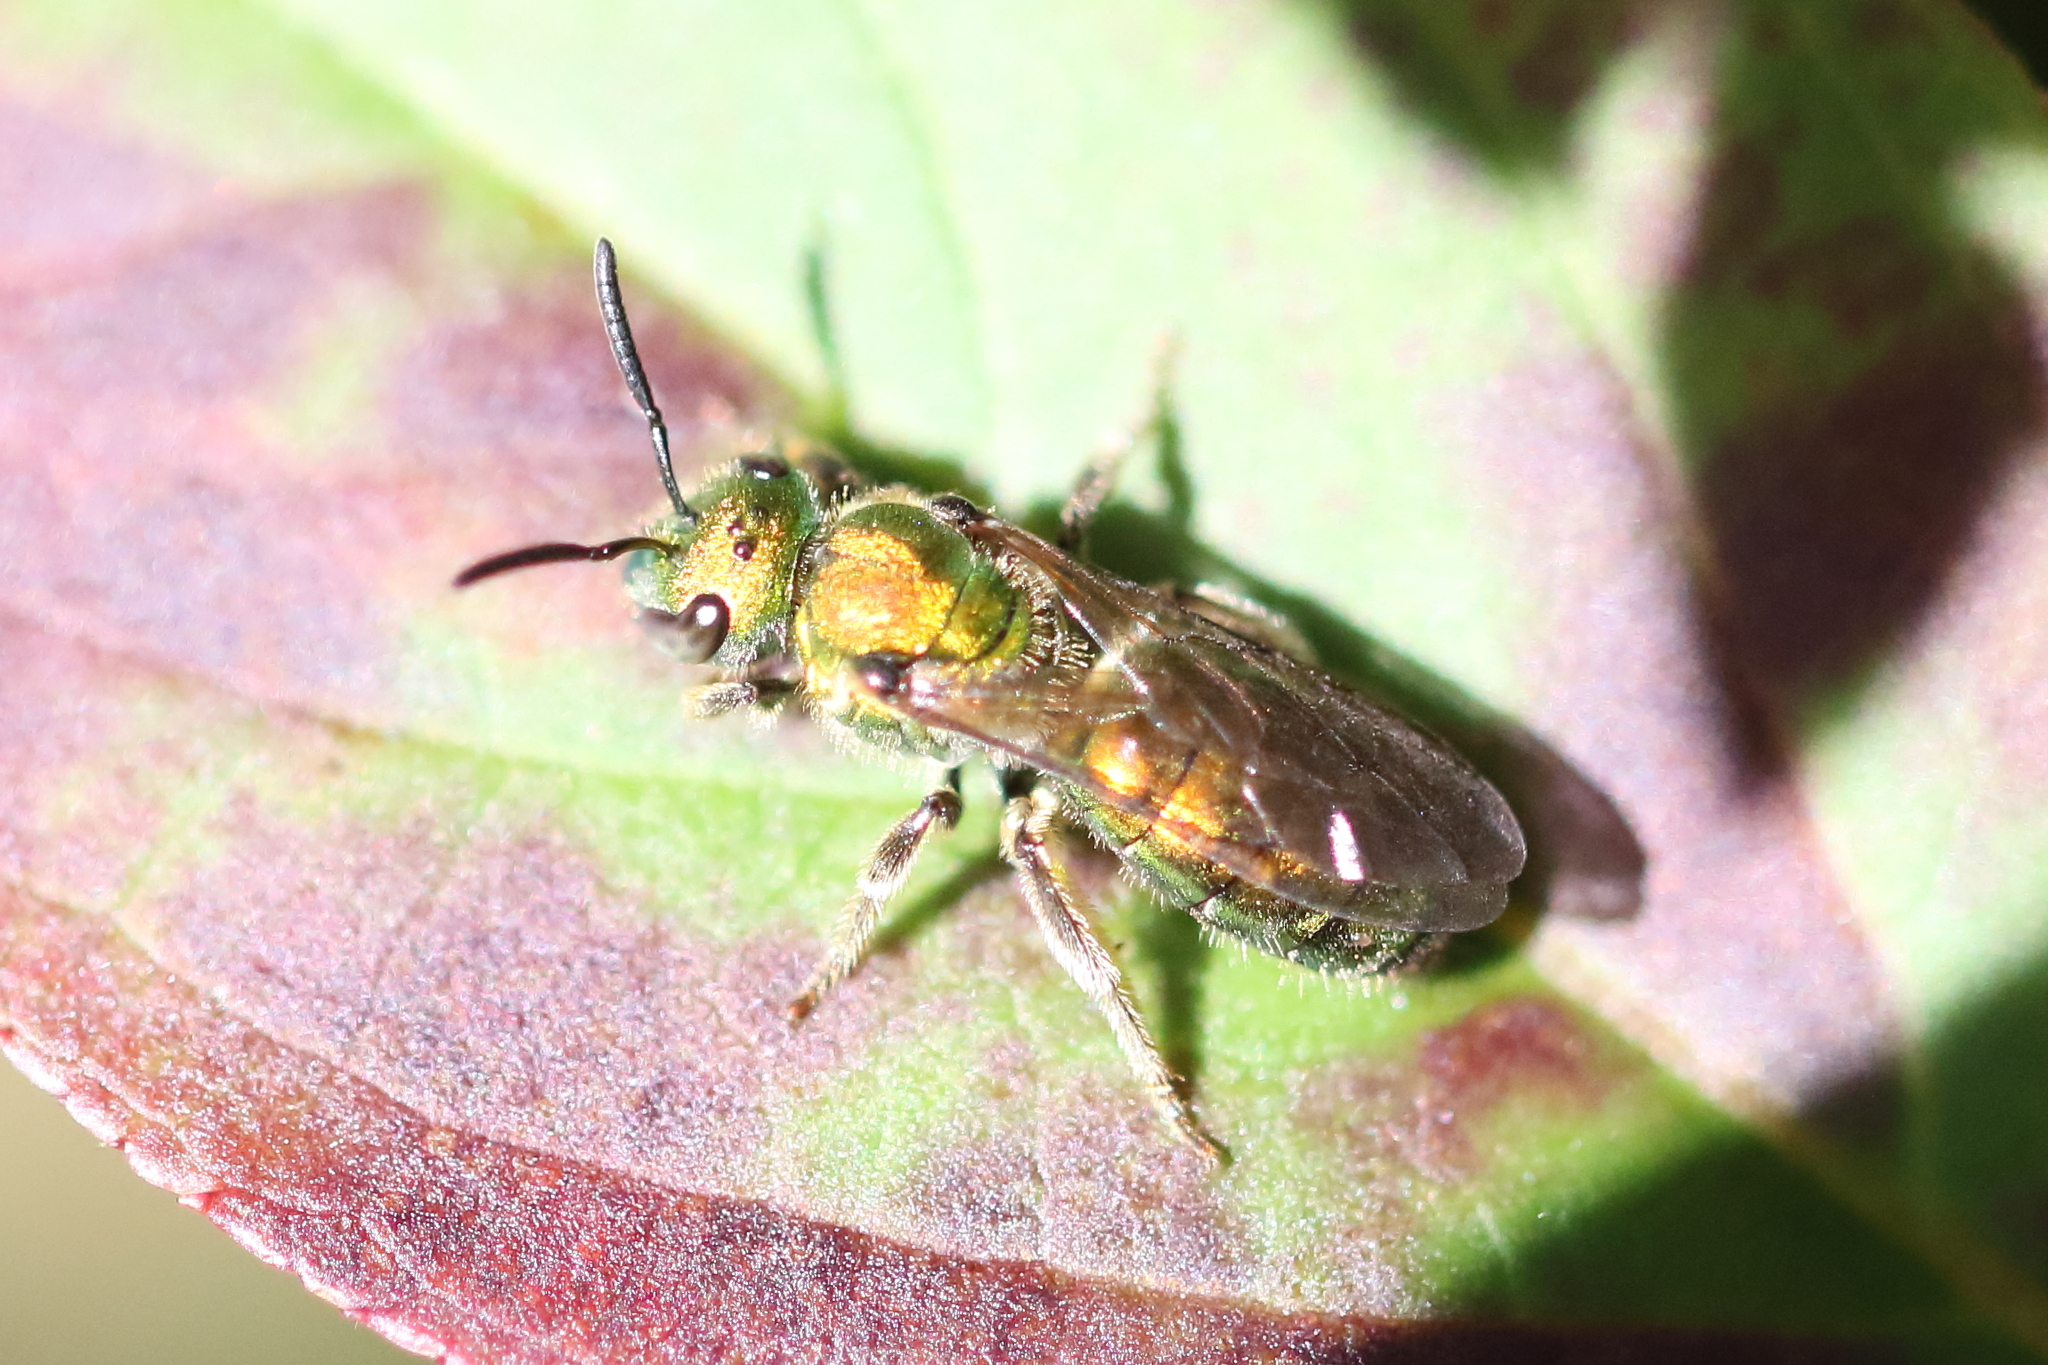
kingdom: Animalia
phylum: Arthropoda
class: Insecta
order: Hymenoptera
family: Halictidae
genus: Augochlora
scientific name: Augochlora pura
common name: Pure green sweat bee
